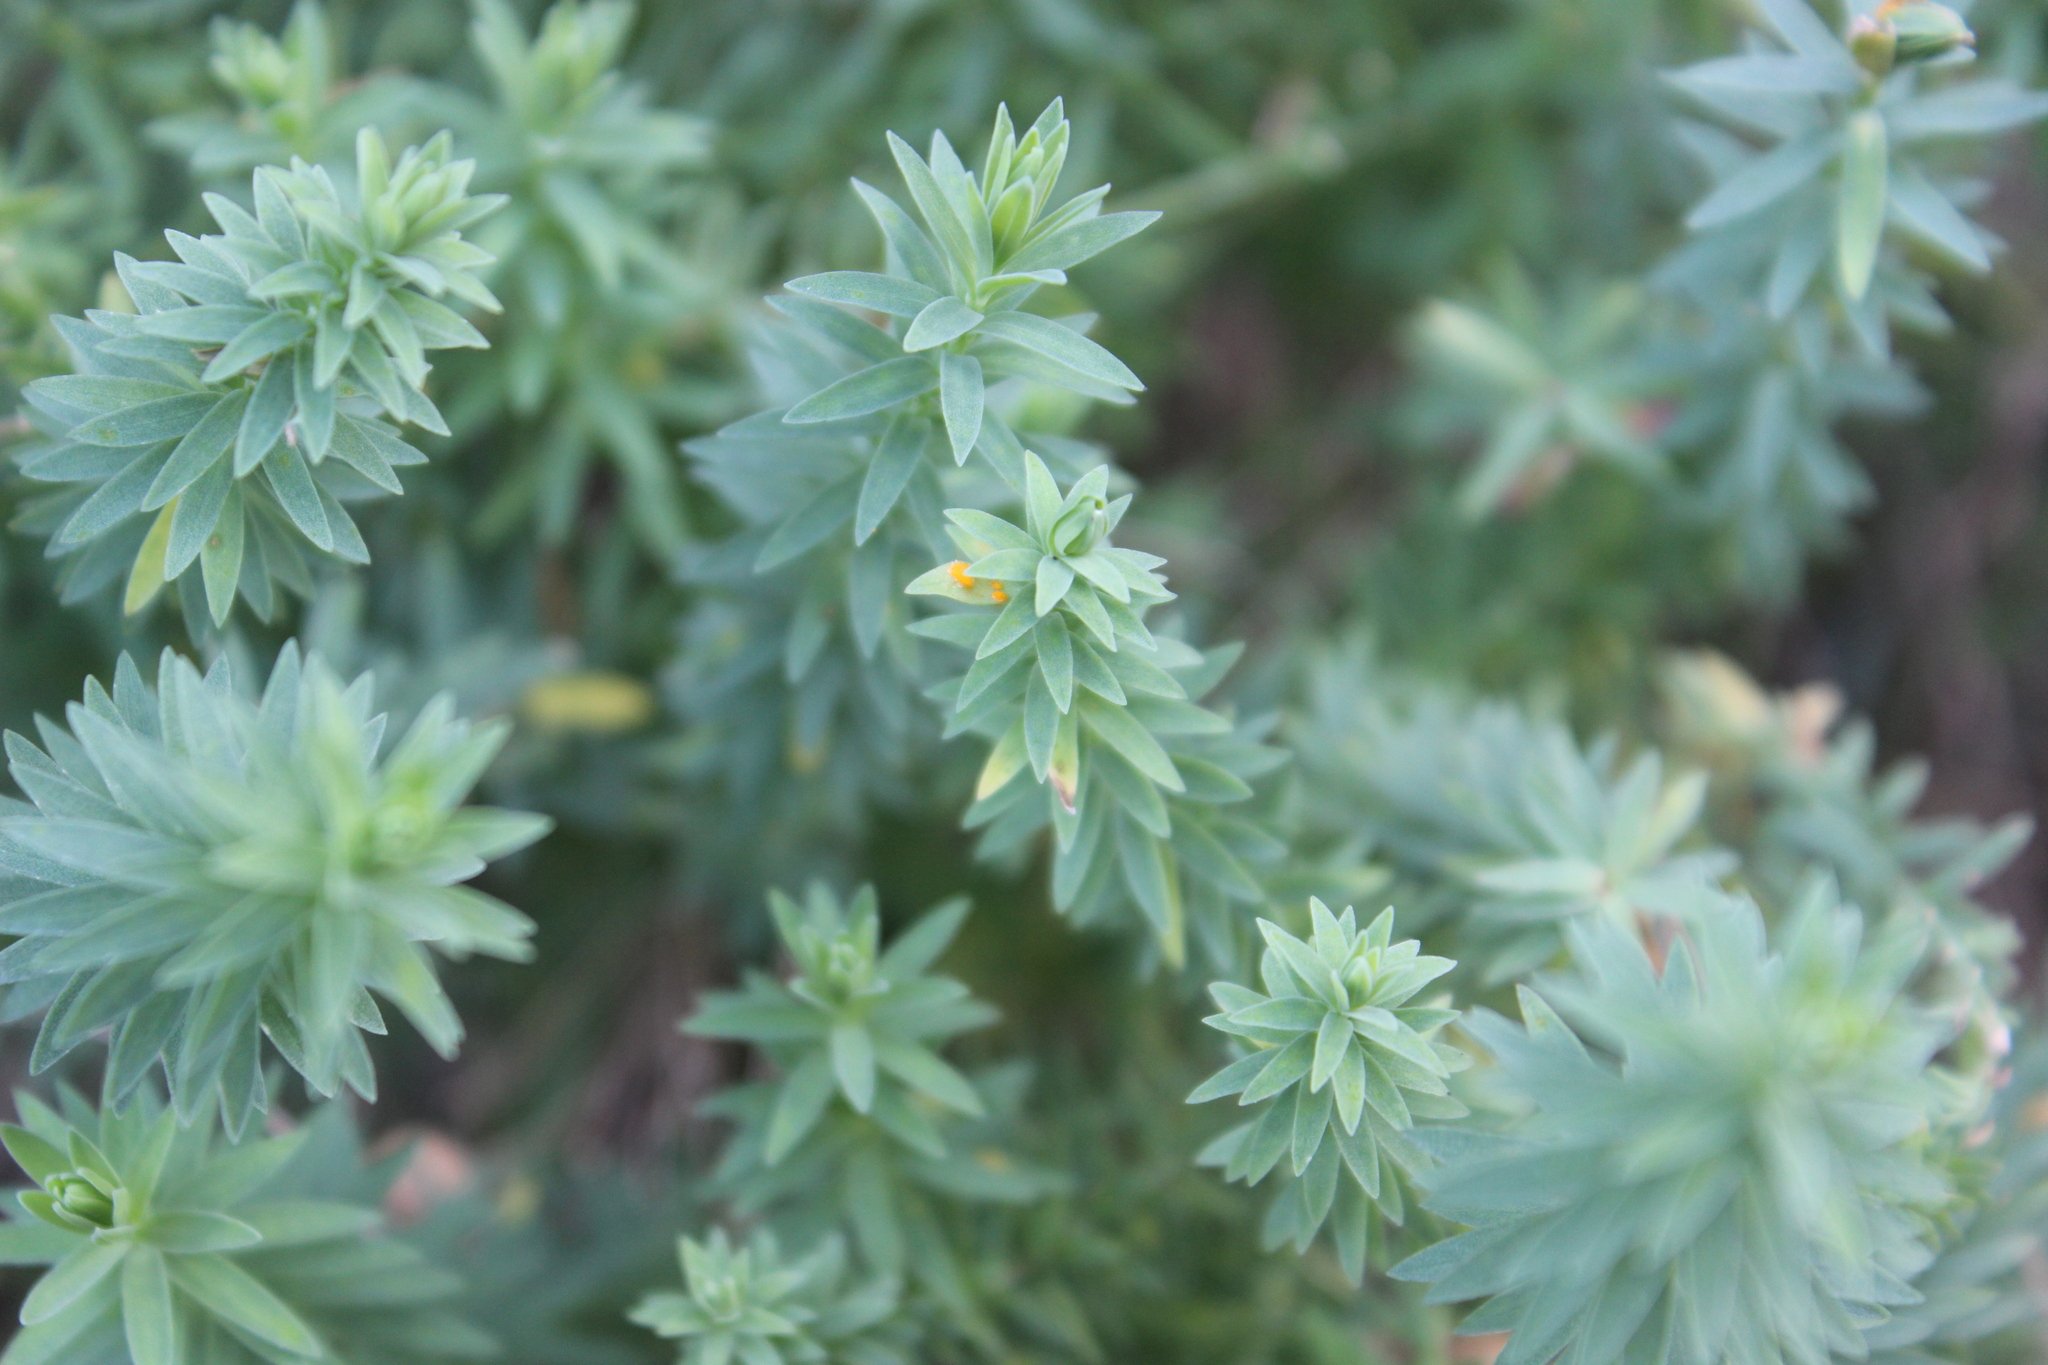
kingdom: Plantae
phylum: Tracheophyta
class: Magnoliopsida
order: Malpighiales
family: Linaceae
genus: Linum
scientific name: Linum monogynum
